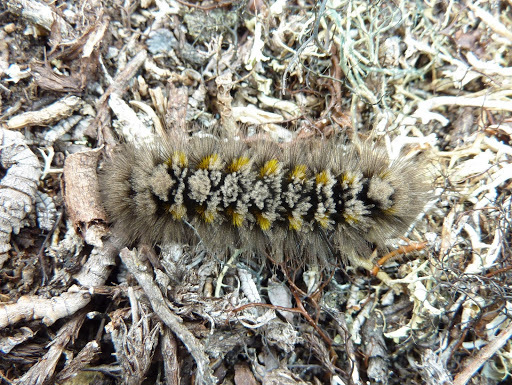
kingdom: Animalia
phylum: Arthropoda
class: Insecta
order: Lepidoptera
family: Erebidae
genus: Gynaephora
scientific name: Gynaephora rossii
